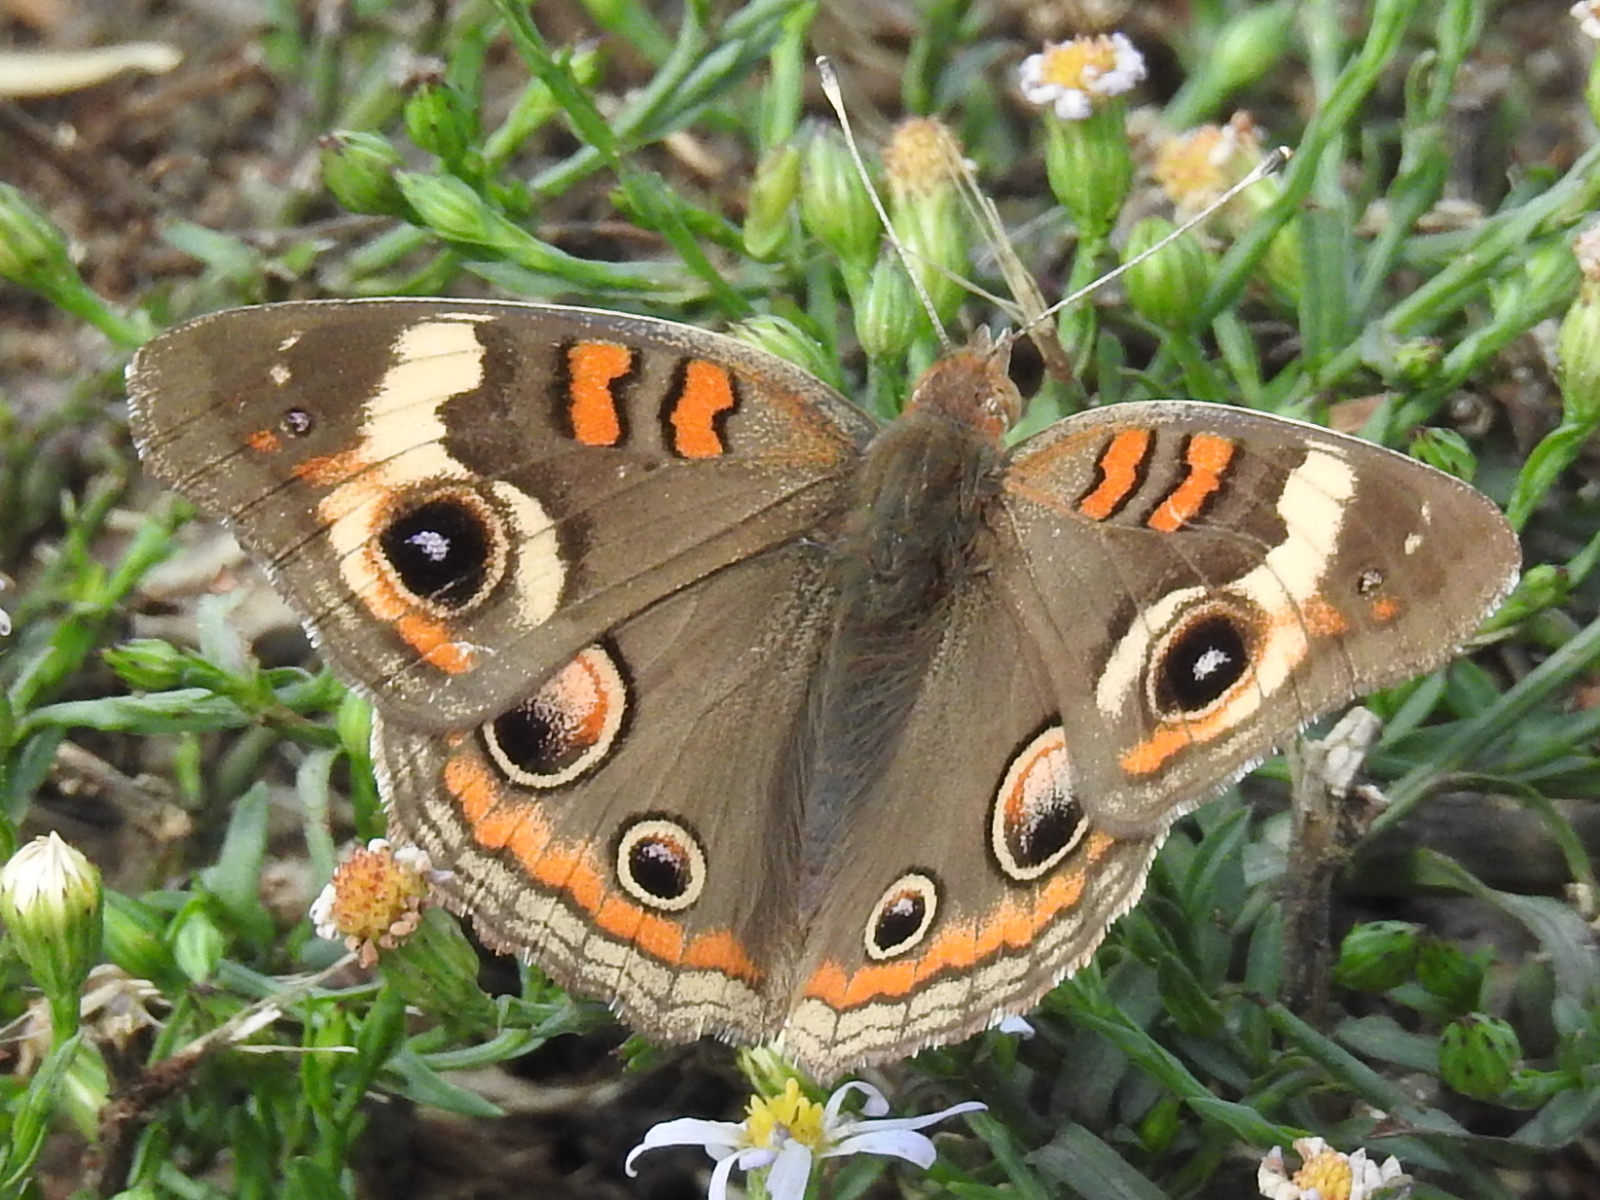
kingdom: Animalia
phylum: Arthropoda
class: Insecta
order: Lepidoptera
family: Nymphalidae
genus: Junonia
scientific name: Junonia coenia
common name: Common buckeye
